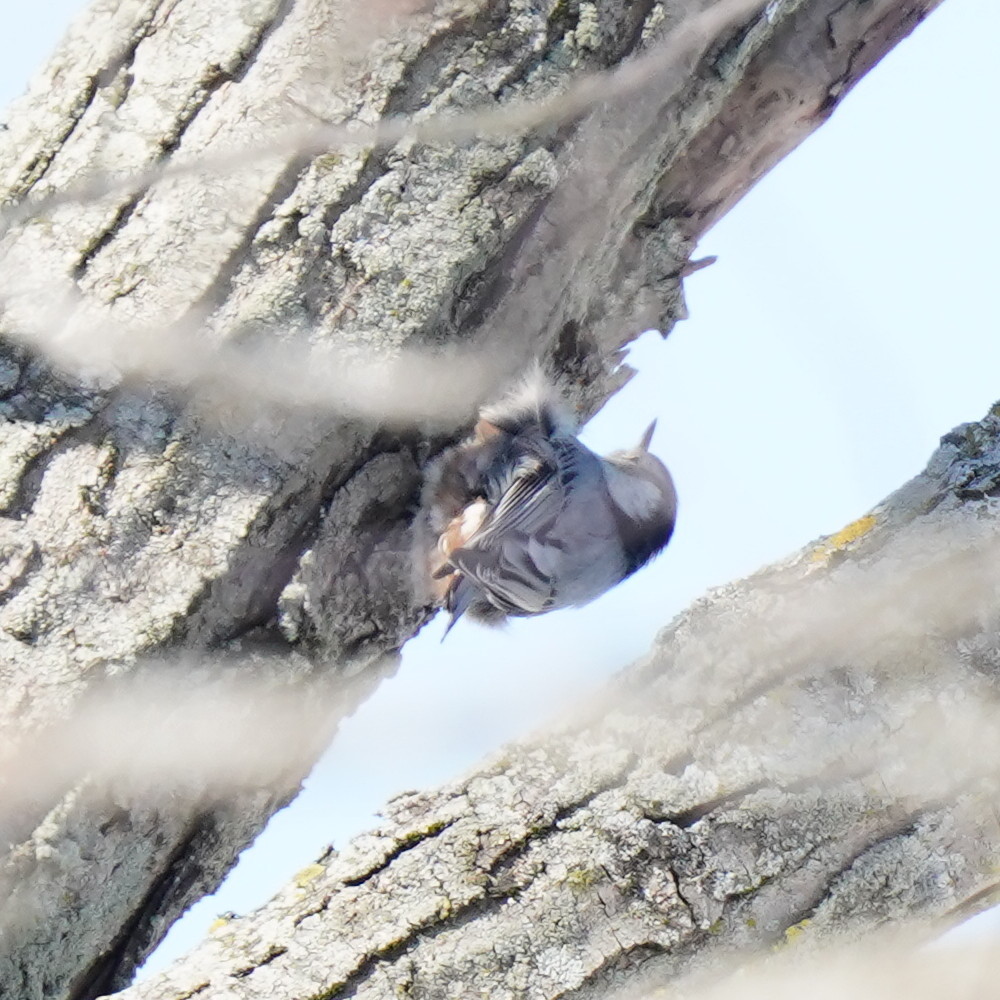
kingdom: Animalia
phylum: Chordata
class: Aves
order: Passeriformes
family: Sittidae
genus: Sitta
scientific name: Sitta carolinensis
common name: White-breasted nuthatch
